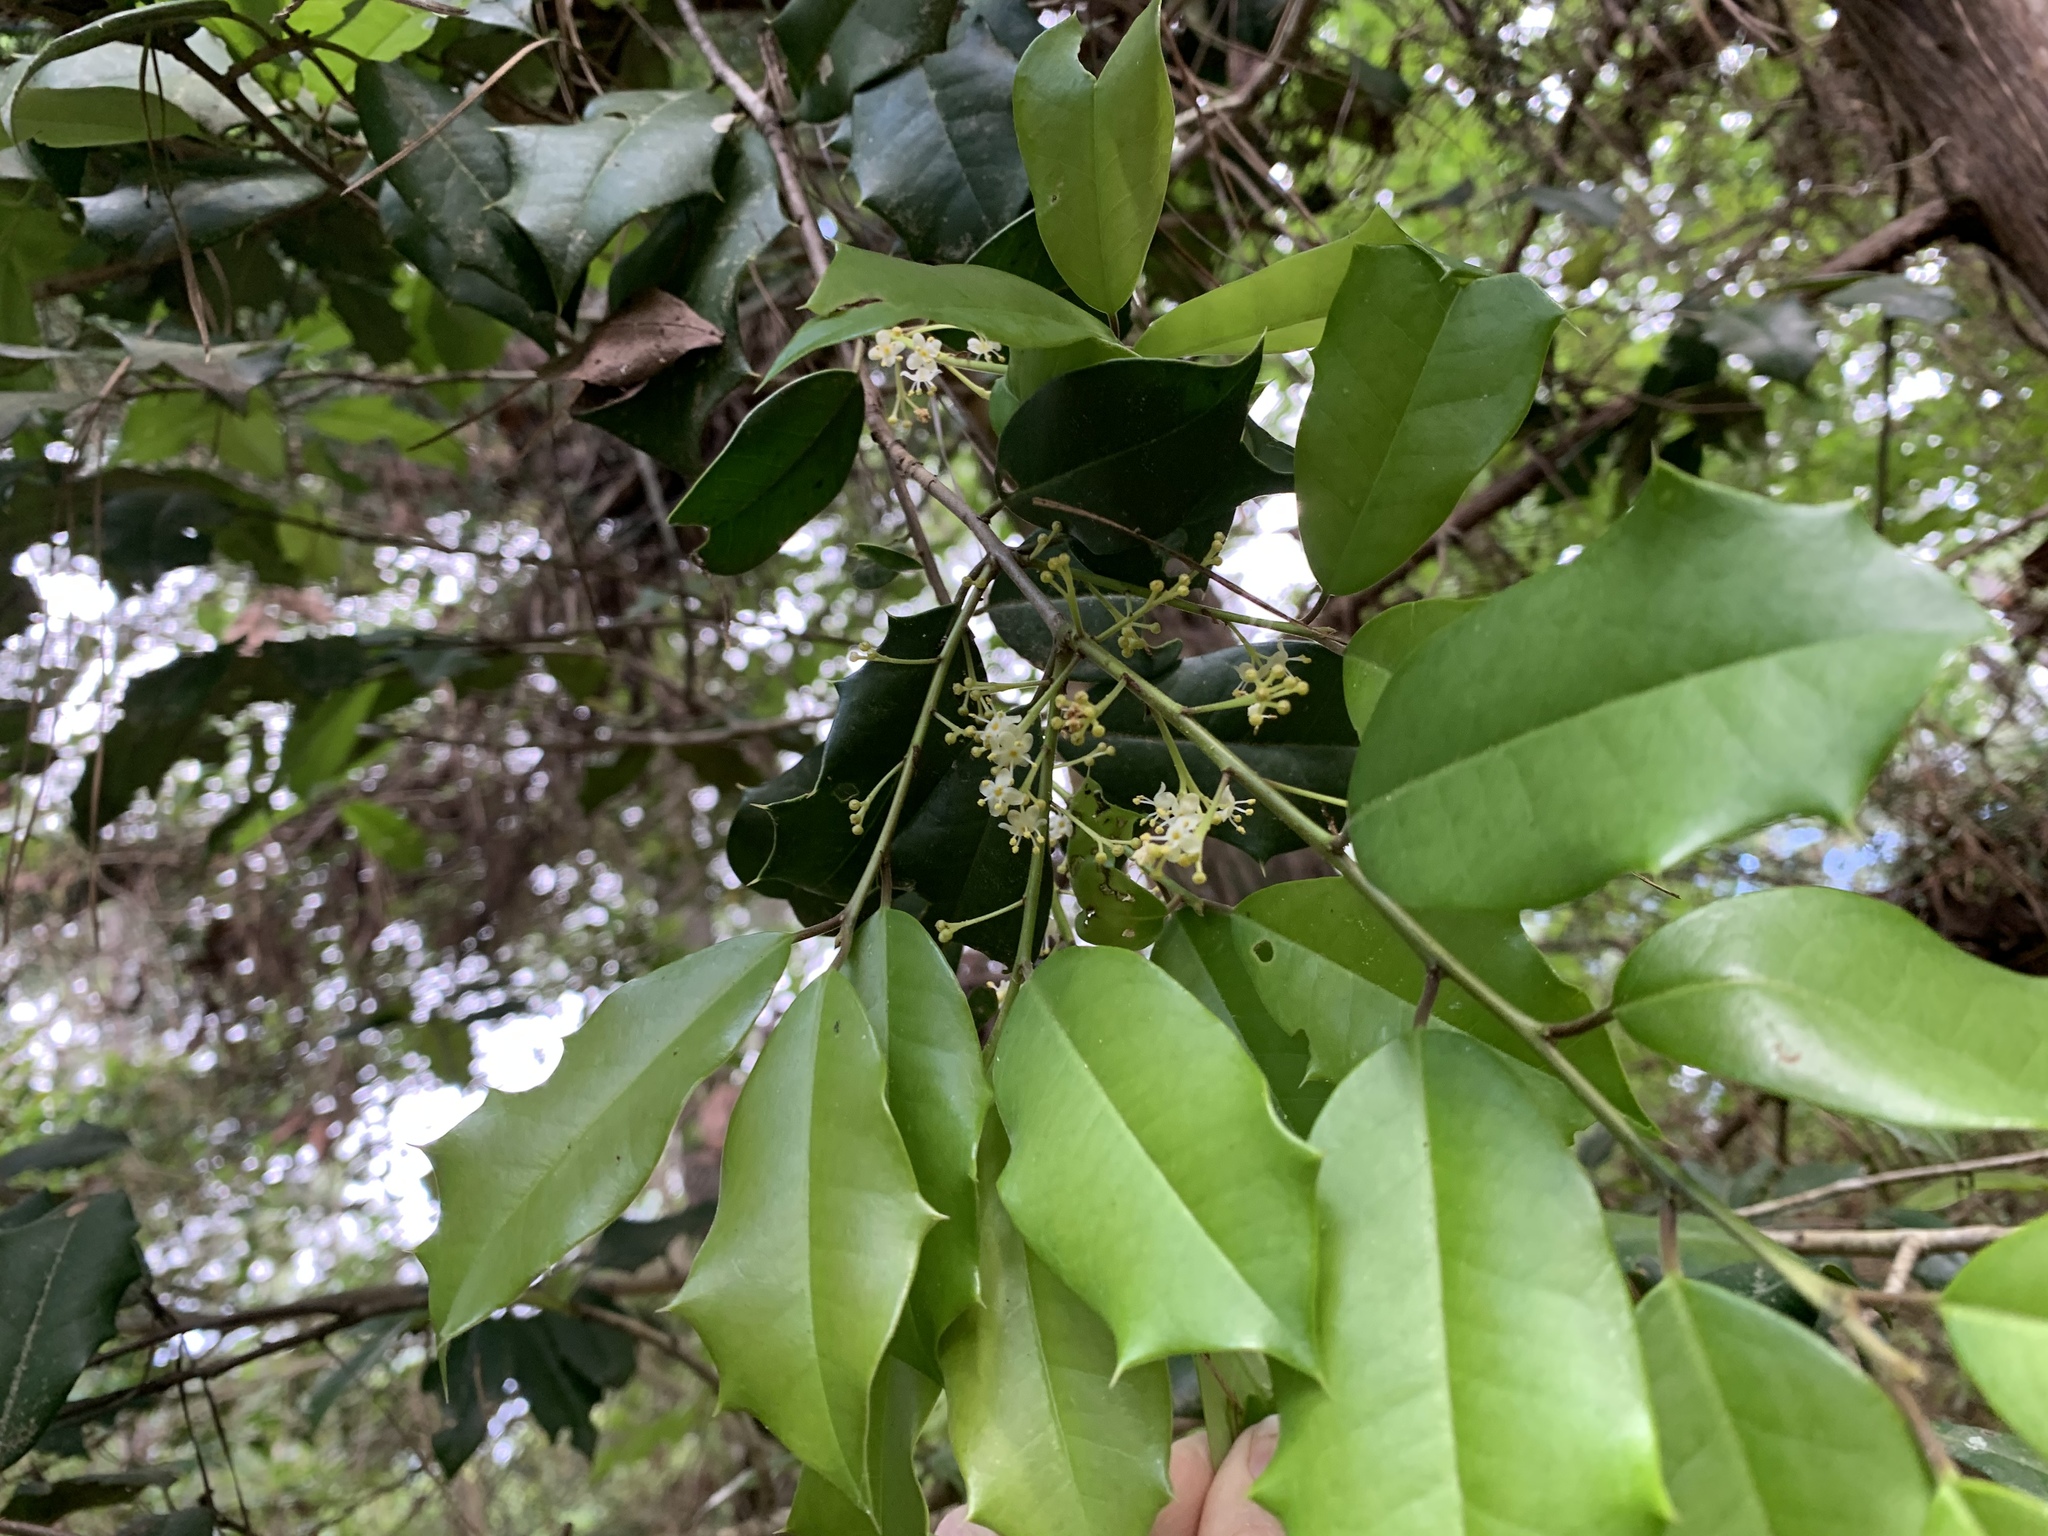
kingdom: Plantae
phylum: Tracheophyta
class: Magnoliopsida
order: Aquifoliales
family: Aquifoliaceae
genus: Ilex
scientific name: Ilex opaca
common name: American holly
